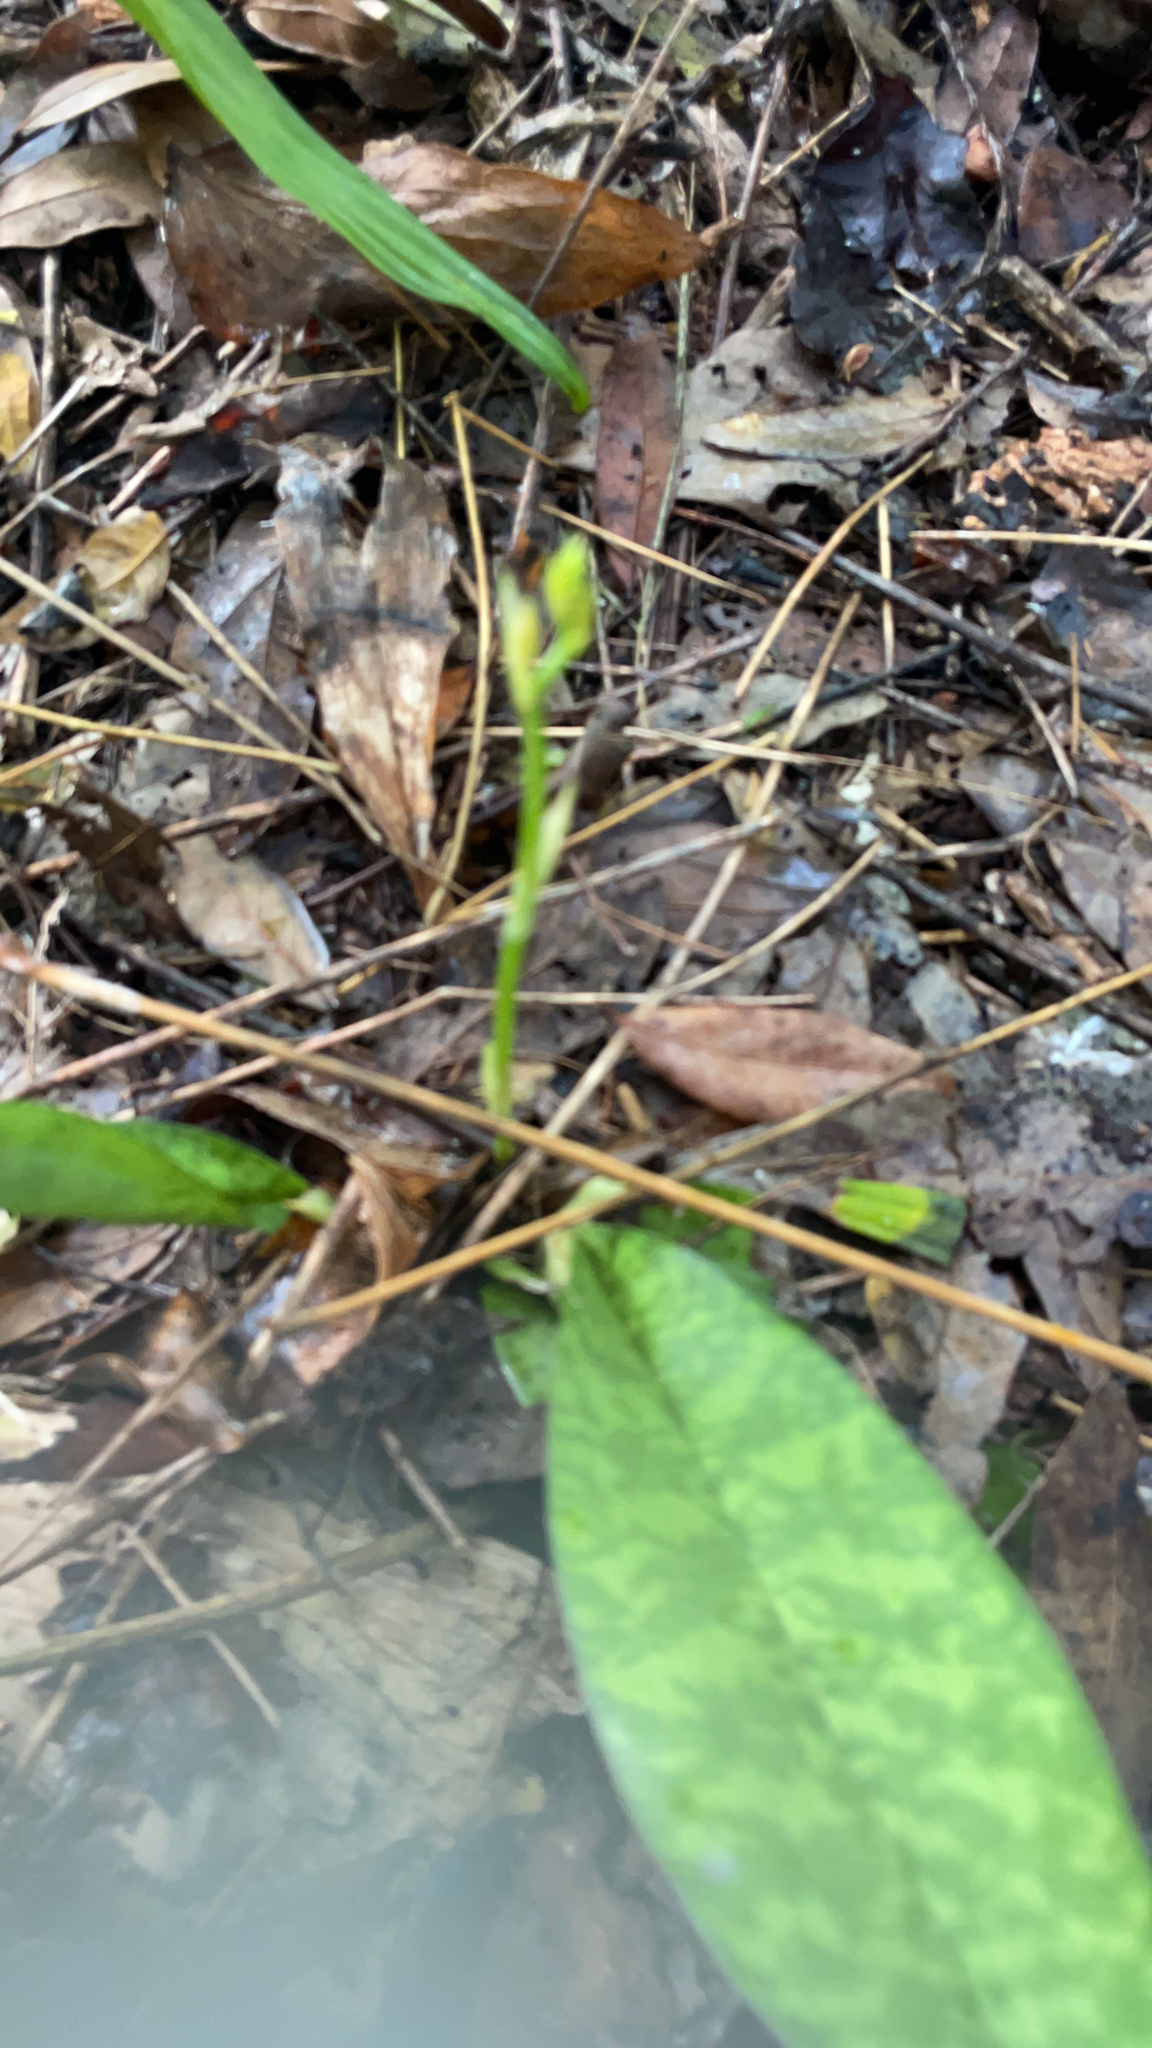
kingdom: Plantae
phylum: Tracheophyta
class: Liliopsida
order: Asparagales
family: Orchidaceae
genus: Eulophia
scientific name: Eulophia maculata
